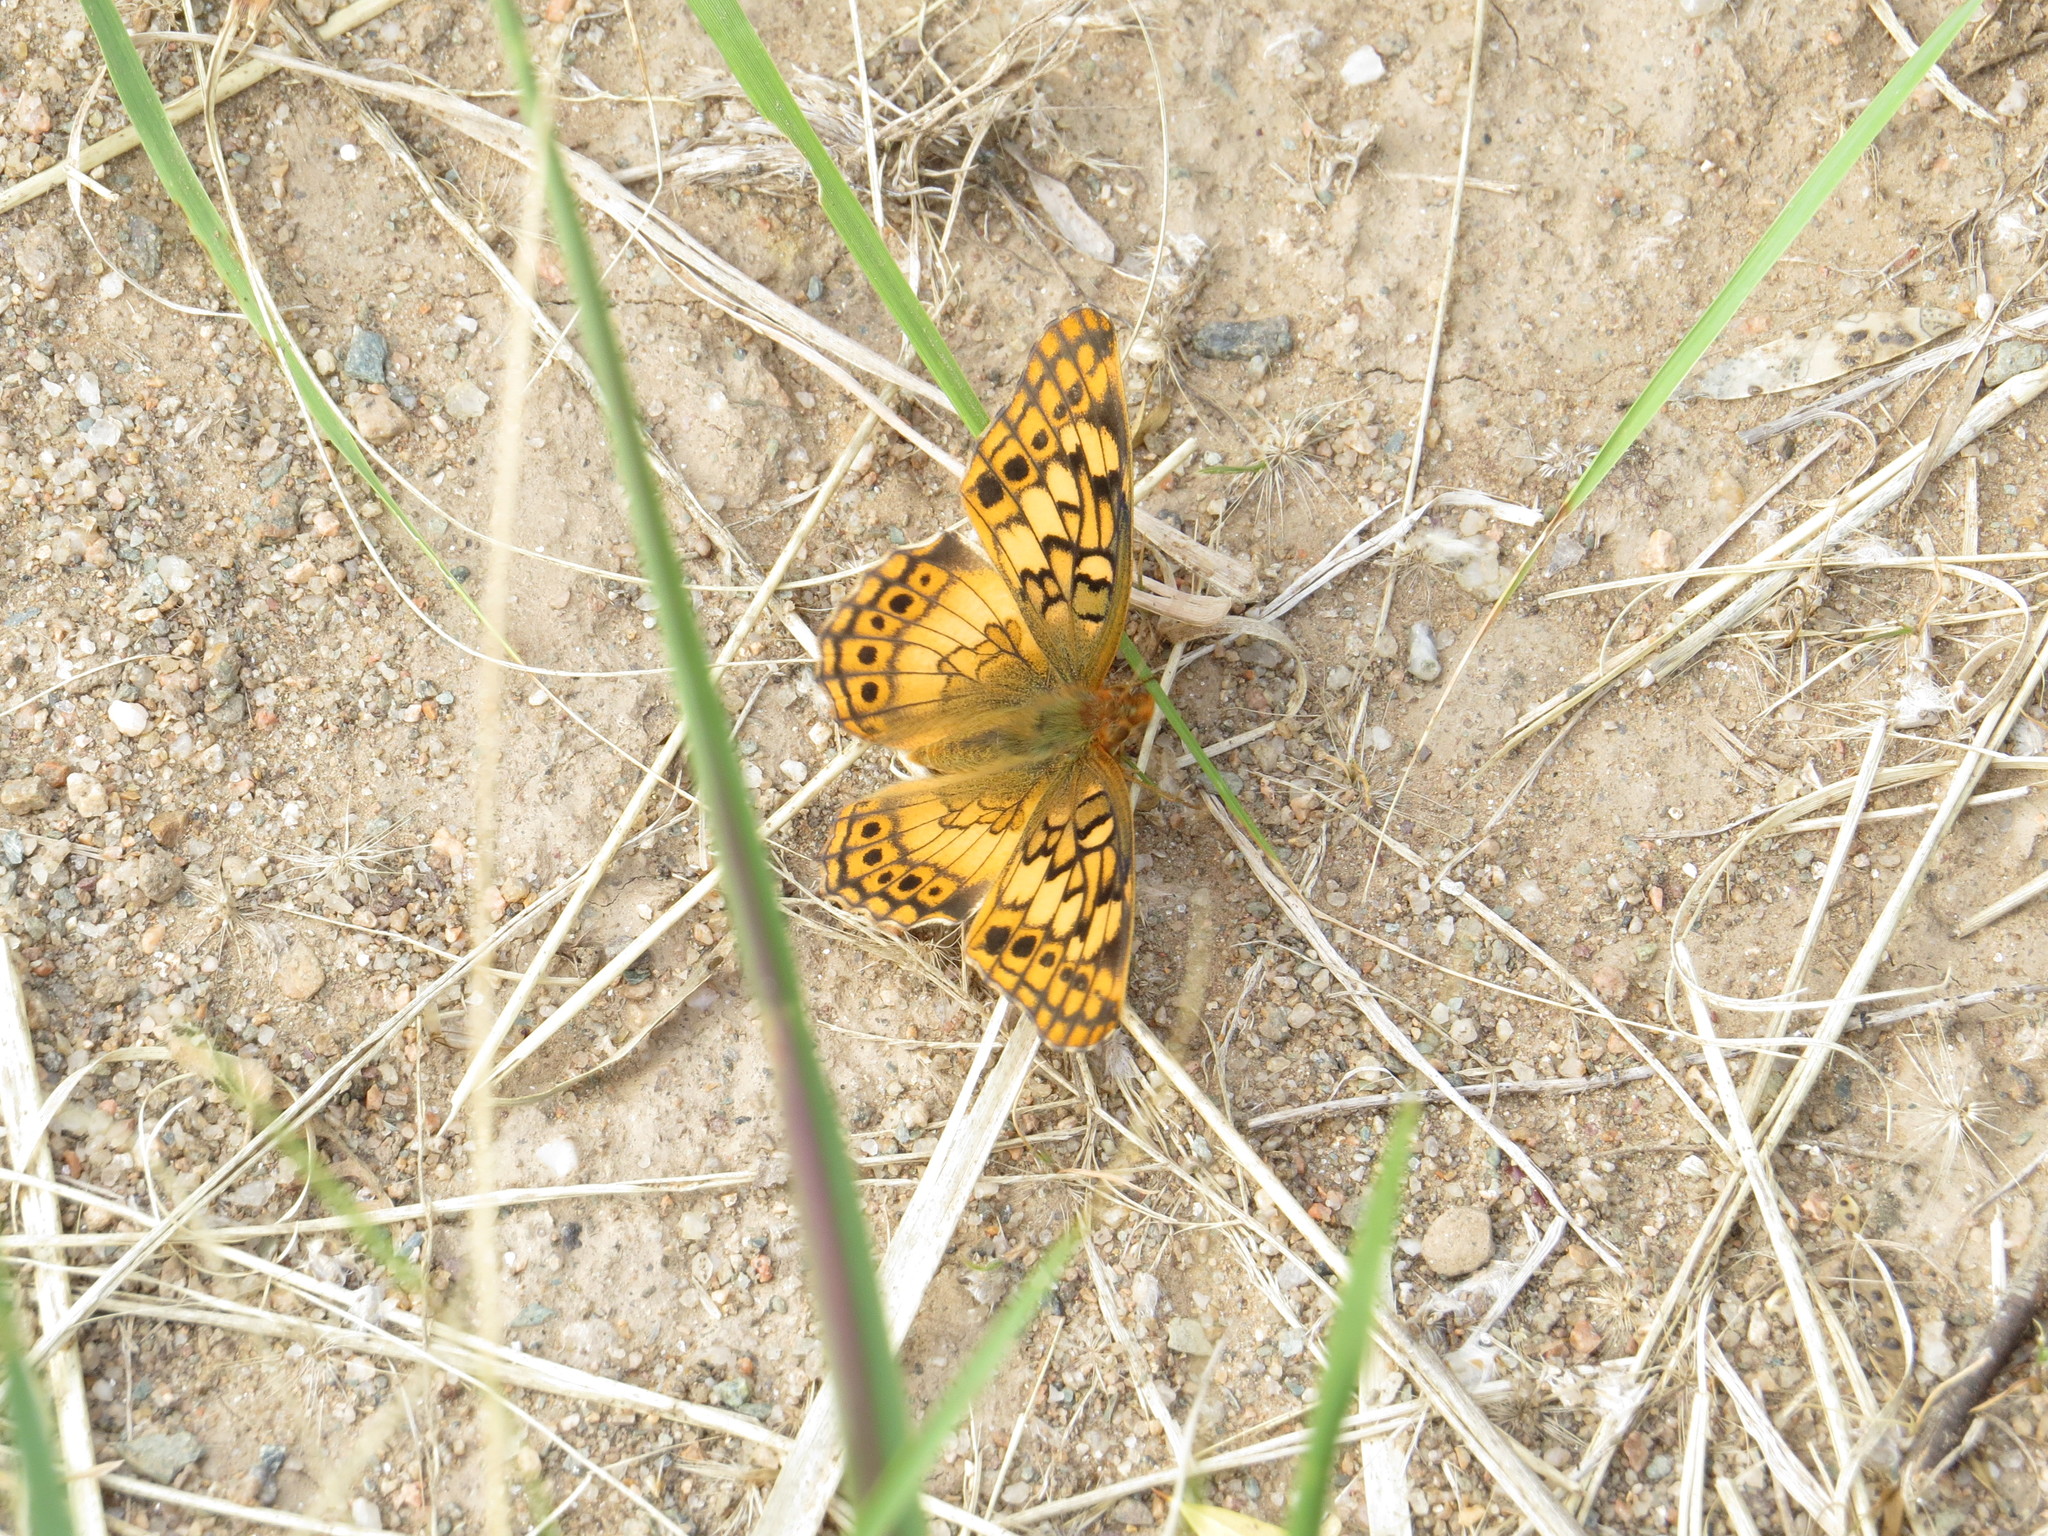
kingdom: Animalia
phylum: Arthropoda
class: Insecta
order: Lepidoptera
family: Nymphalidae
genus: Euptoieta
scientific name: Euptoieta hortensia
